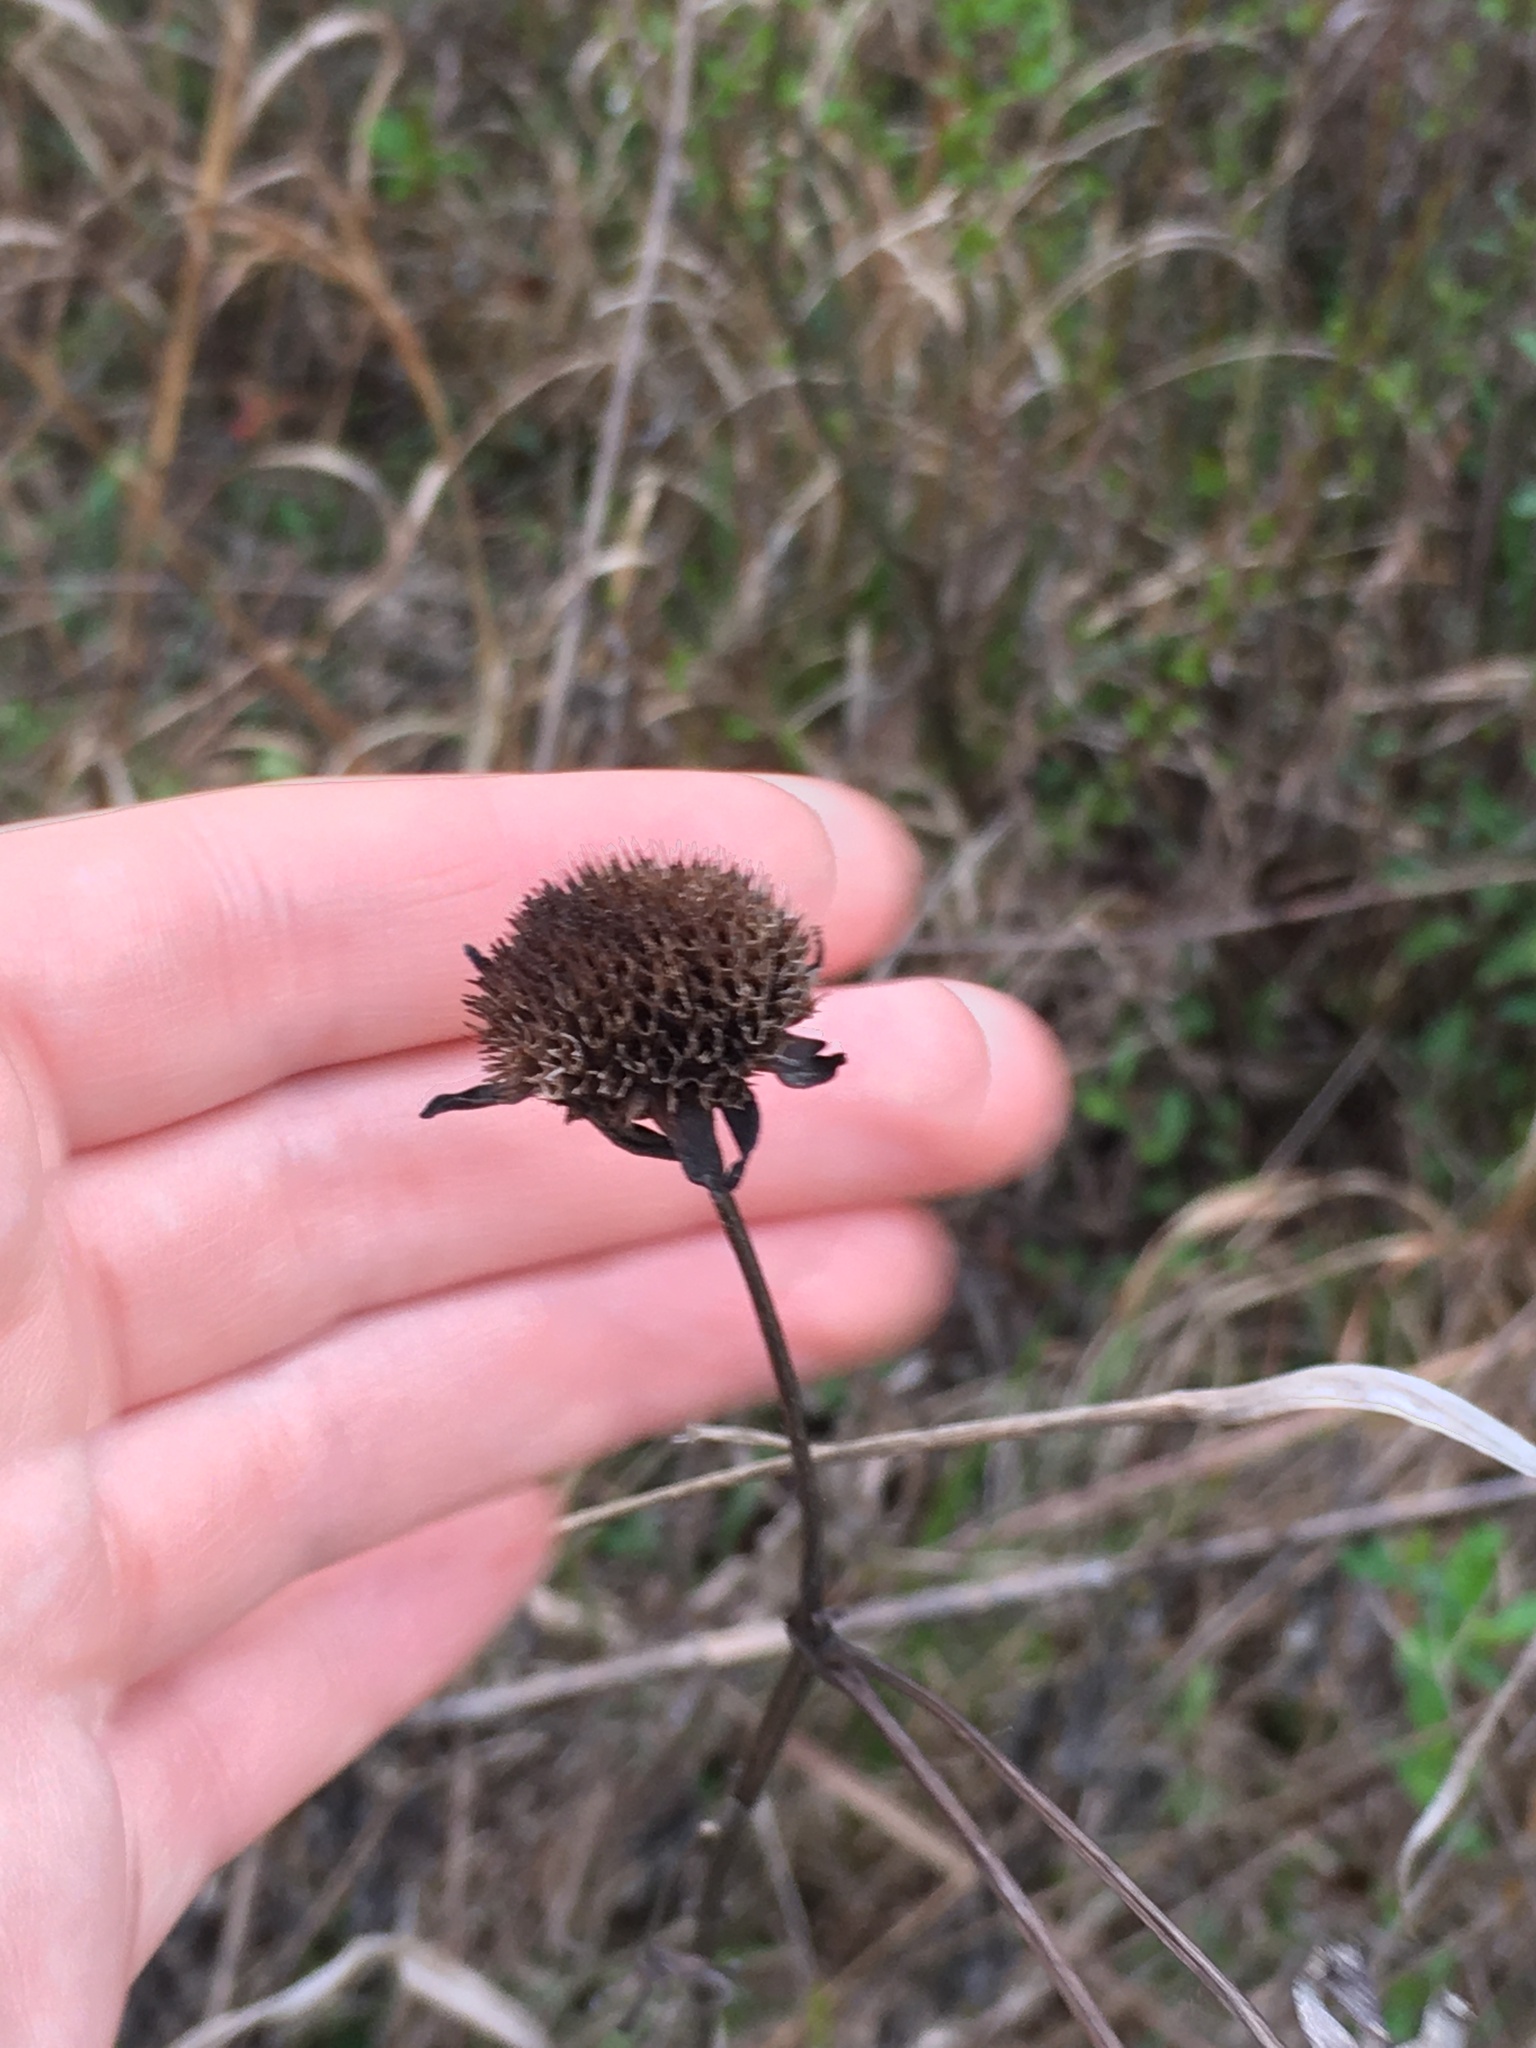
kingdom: Plantae
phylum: Tracheophyta
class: Magnoliopsida
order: Lamiales
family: Lamiaceae
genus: Hyptis
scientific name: Hyptis alata
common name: Cluster bush-mint
